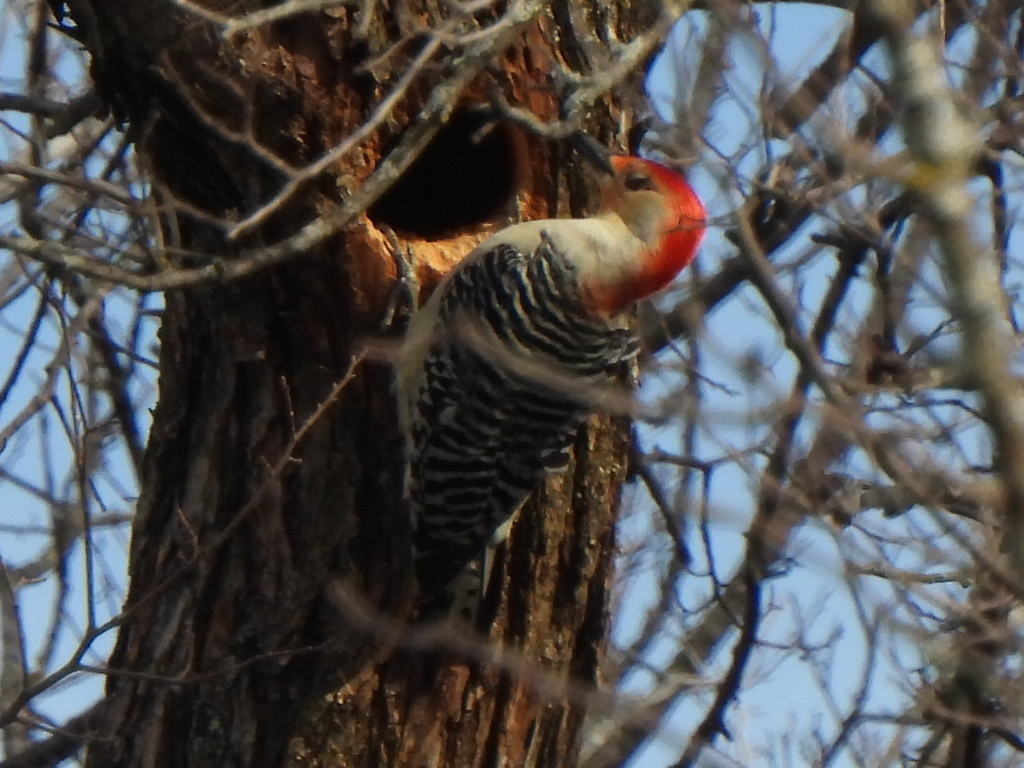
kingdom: Animalia
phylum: Chordata
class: Aves
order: Piciformes
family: Picidae
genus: Melanerpes
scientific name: Melanerpes carolinus
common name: Red-bellied woodpecker
